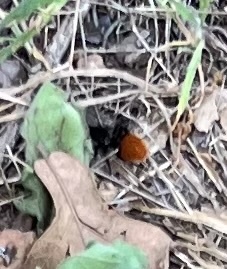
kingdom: Animalia
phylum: Arthropoda
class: Insecta
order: Hymenoptera
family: Mutillidae
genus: Dasymutilla
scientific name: Dasymutilla
